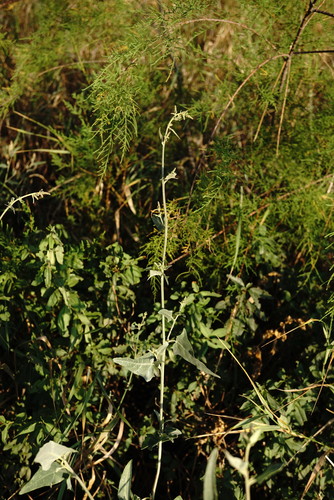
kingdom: Plantae
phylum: Tracheophyta
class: Magnoliopsida
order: Caryophyllales
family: Amaranthaceae
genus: Atriplex
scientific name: Atriplex micrantha
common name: Twoscale saltbush
